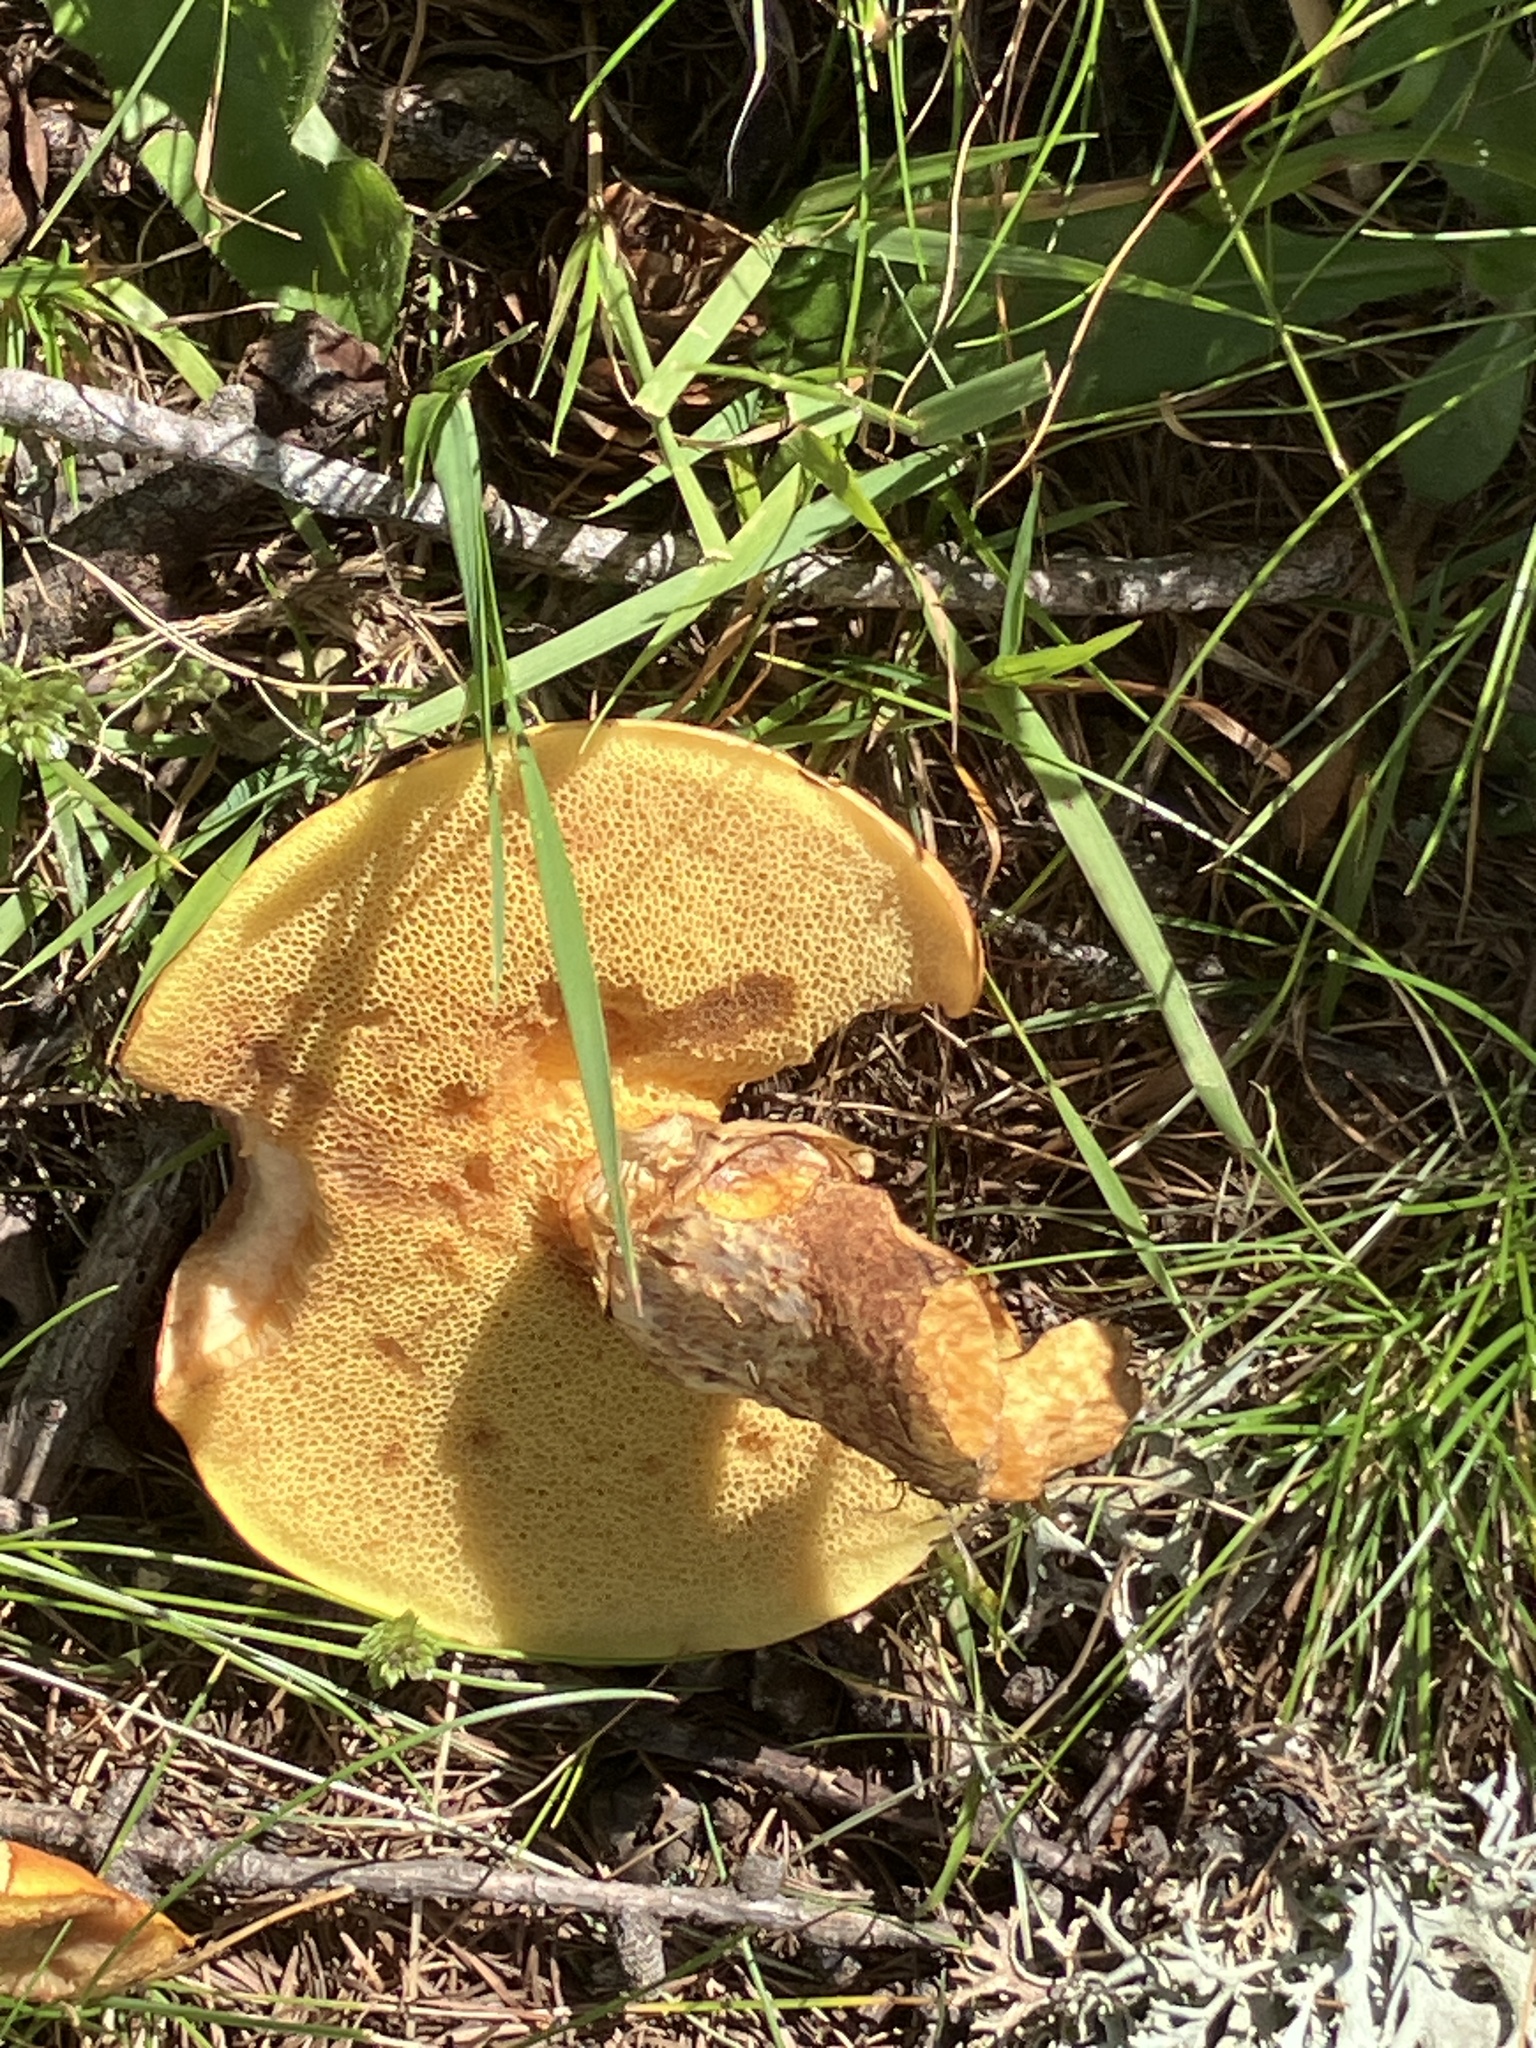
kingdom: Fungi
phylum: Basidiomycota
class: Agaricomycetes
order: Boletales
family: Suillaceae
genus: Suillus
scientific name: Suillus grevillei
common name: Larch bolete
